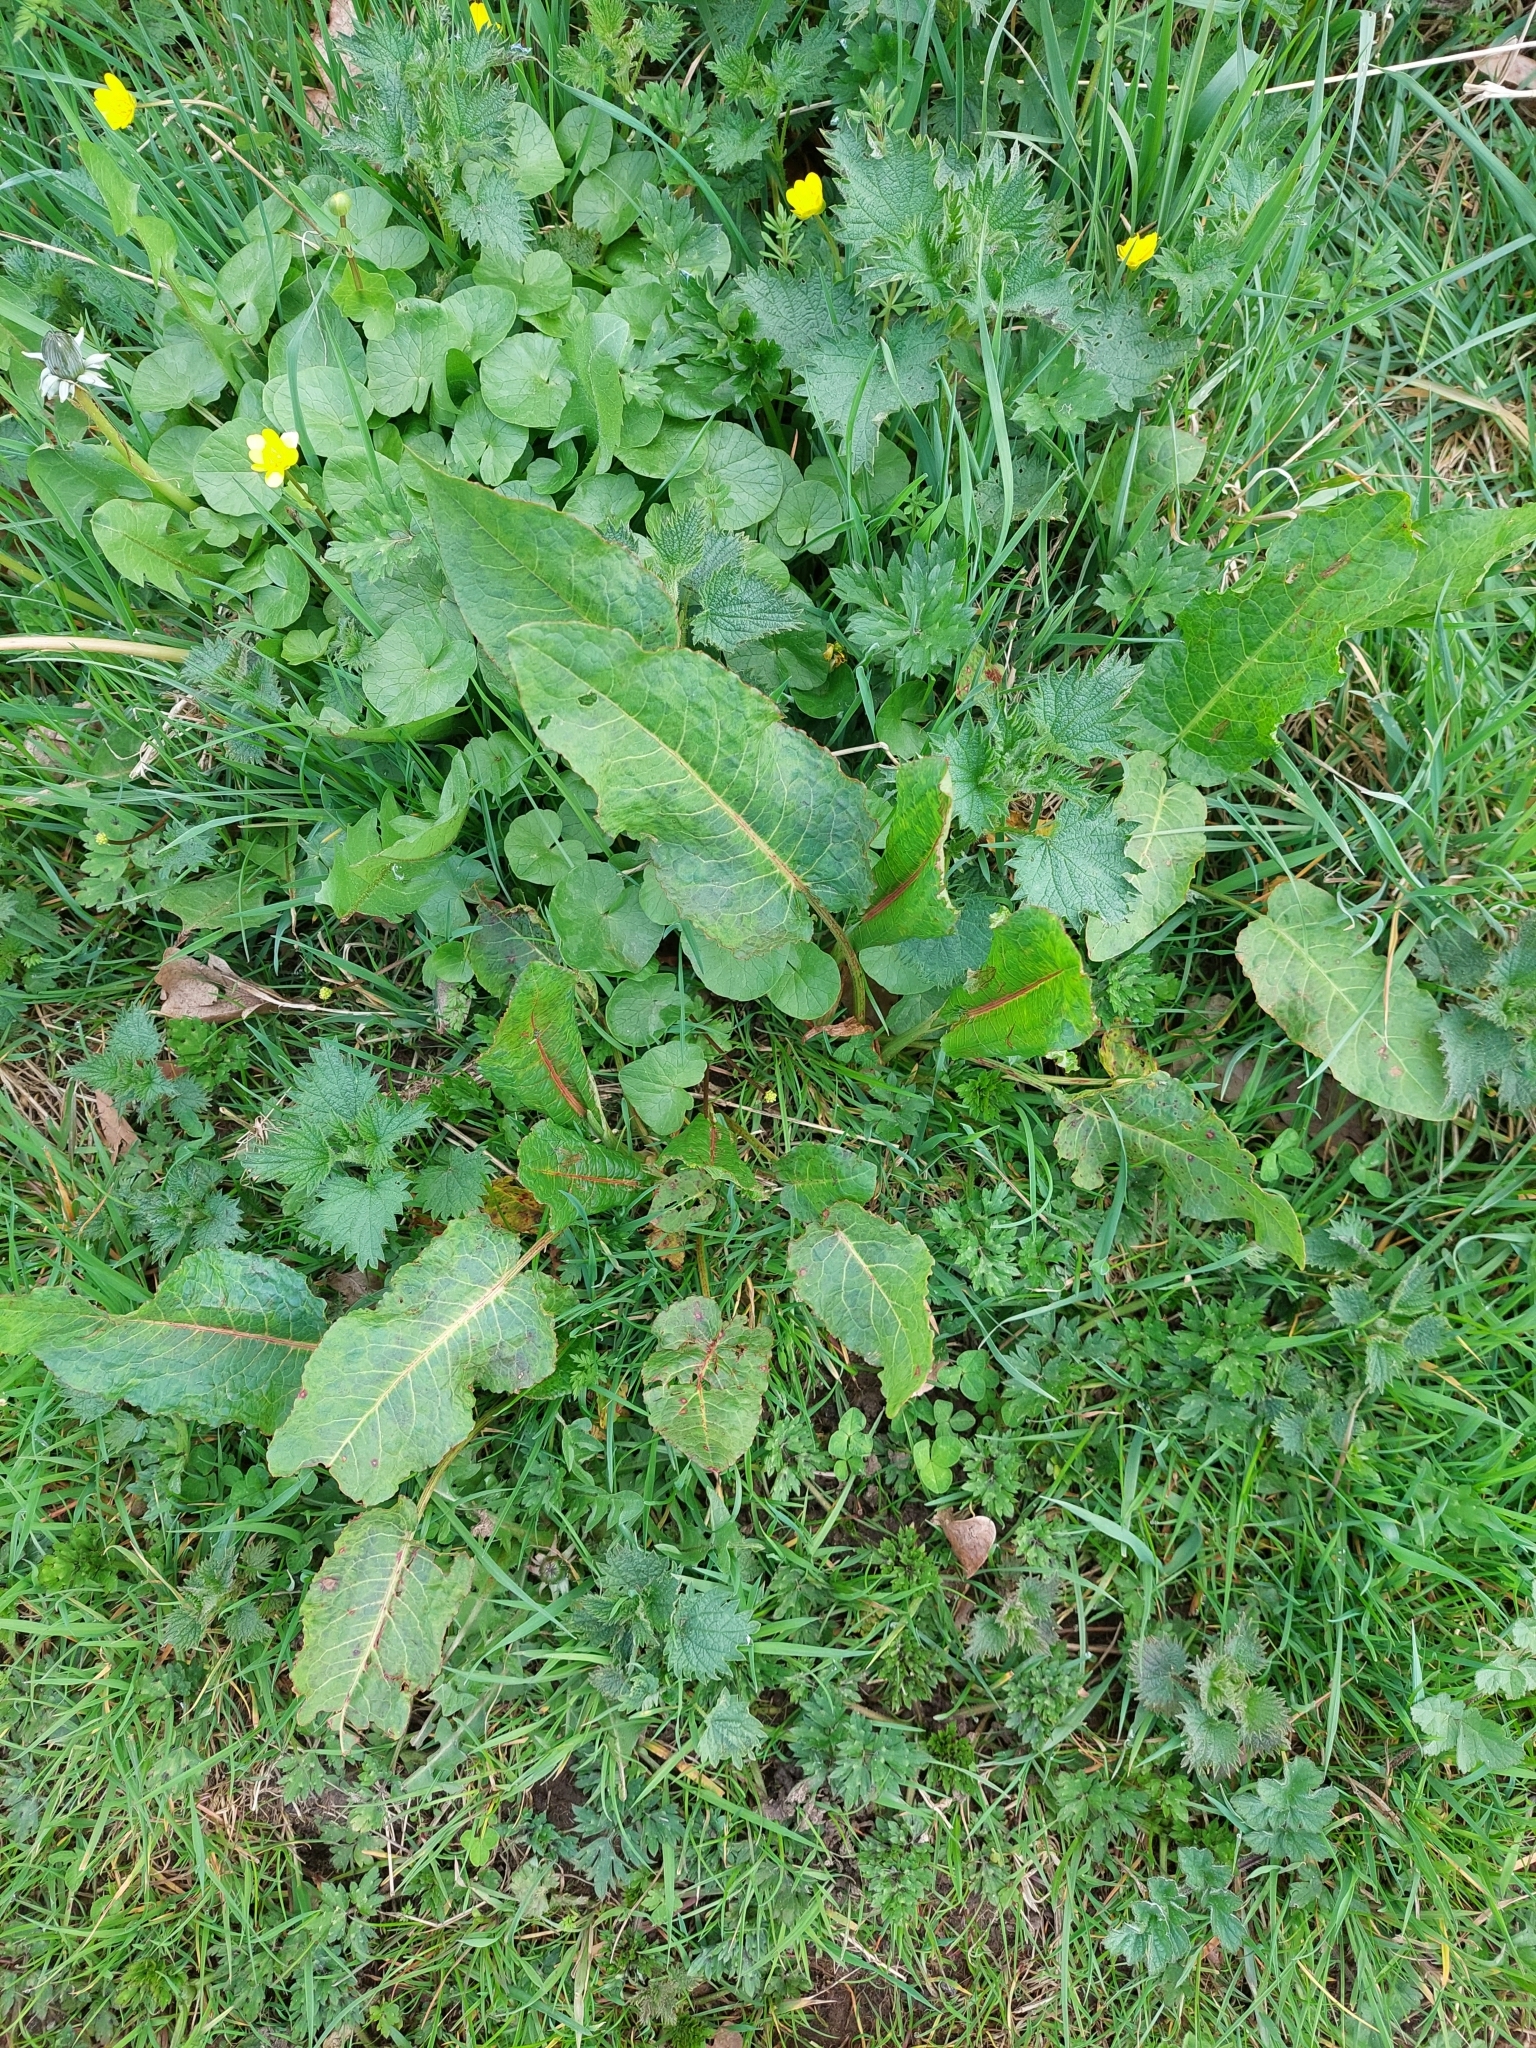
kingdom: Plantae
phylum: Tracheophyta
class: Magnoliopsida
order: Caryophyllales
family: Polygonaceae
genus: Rumex
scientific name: Rumex obtusifolius
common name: Bitter dock
